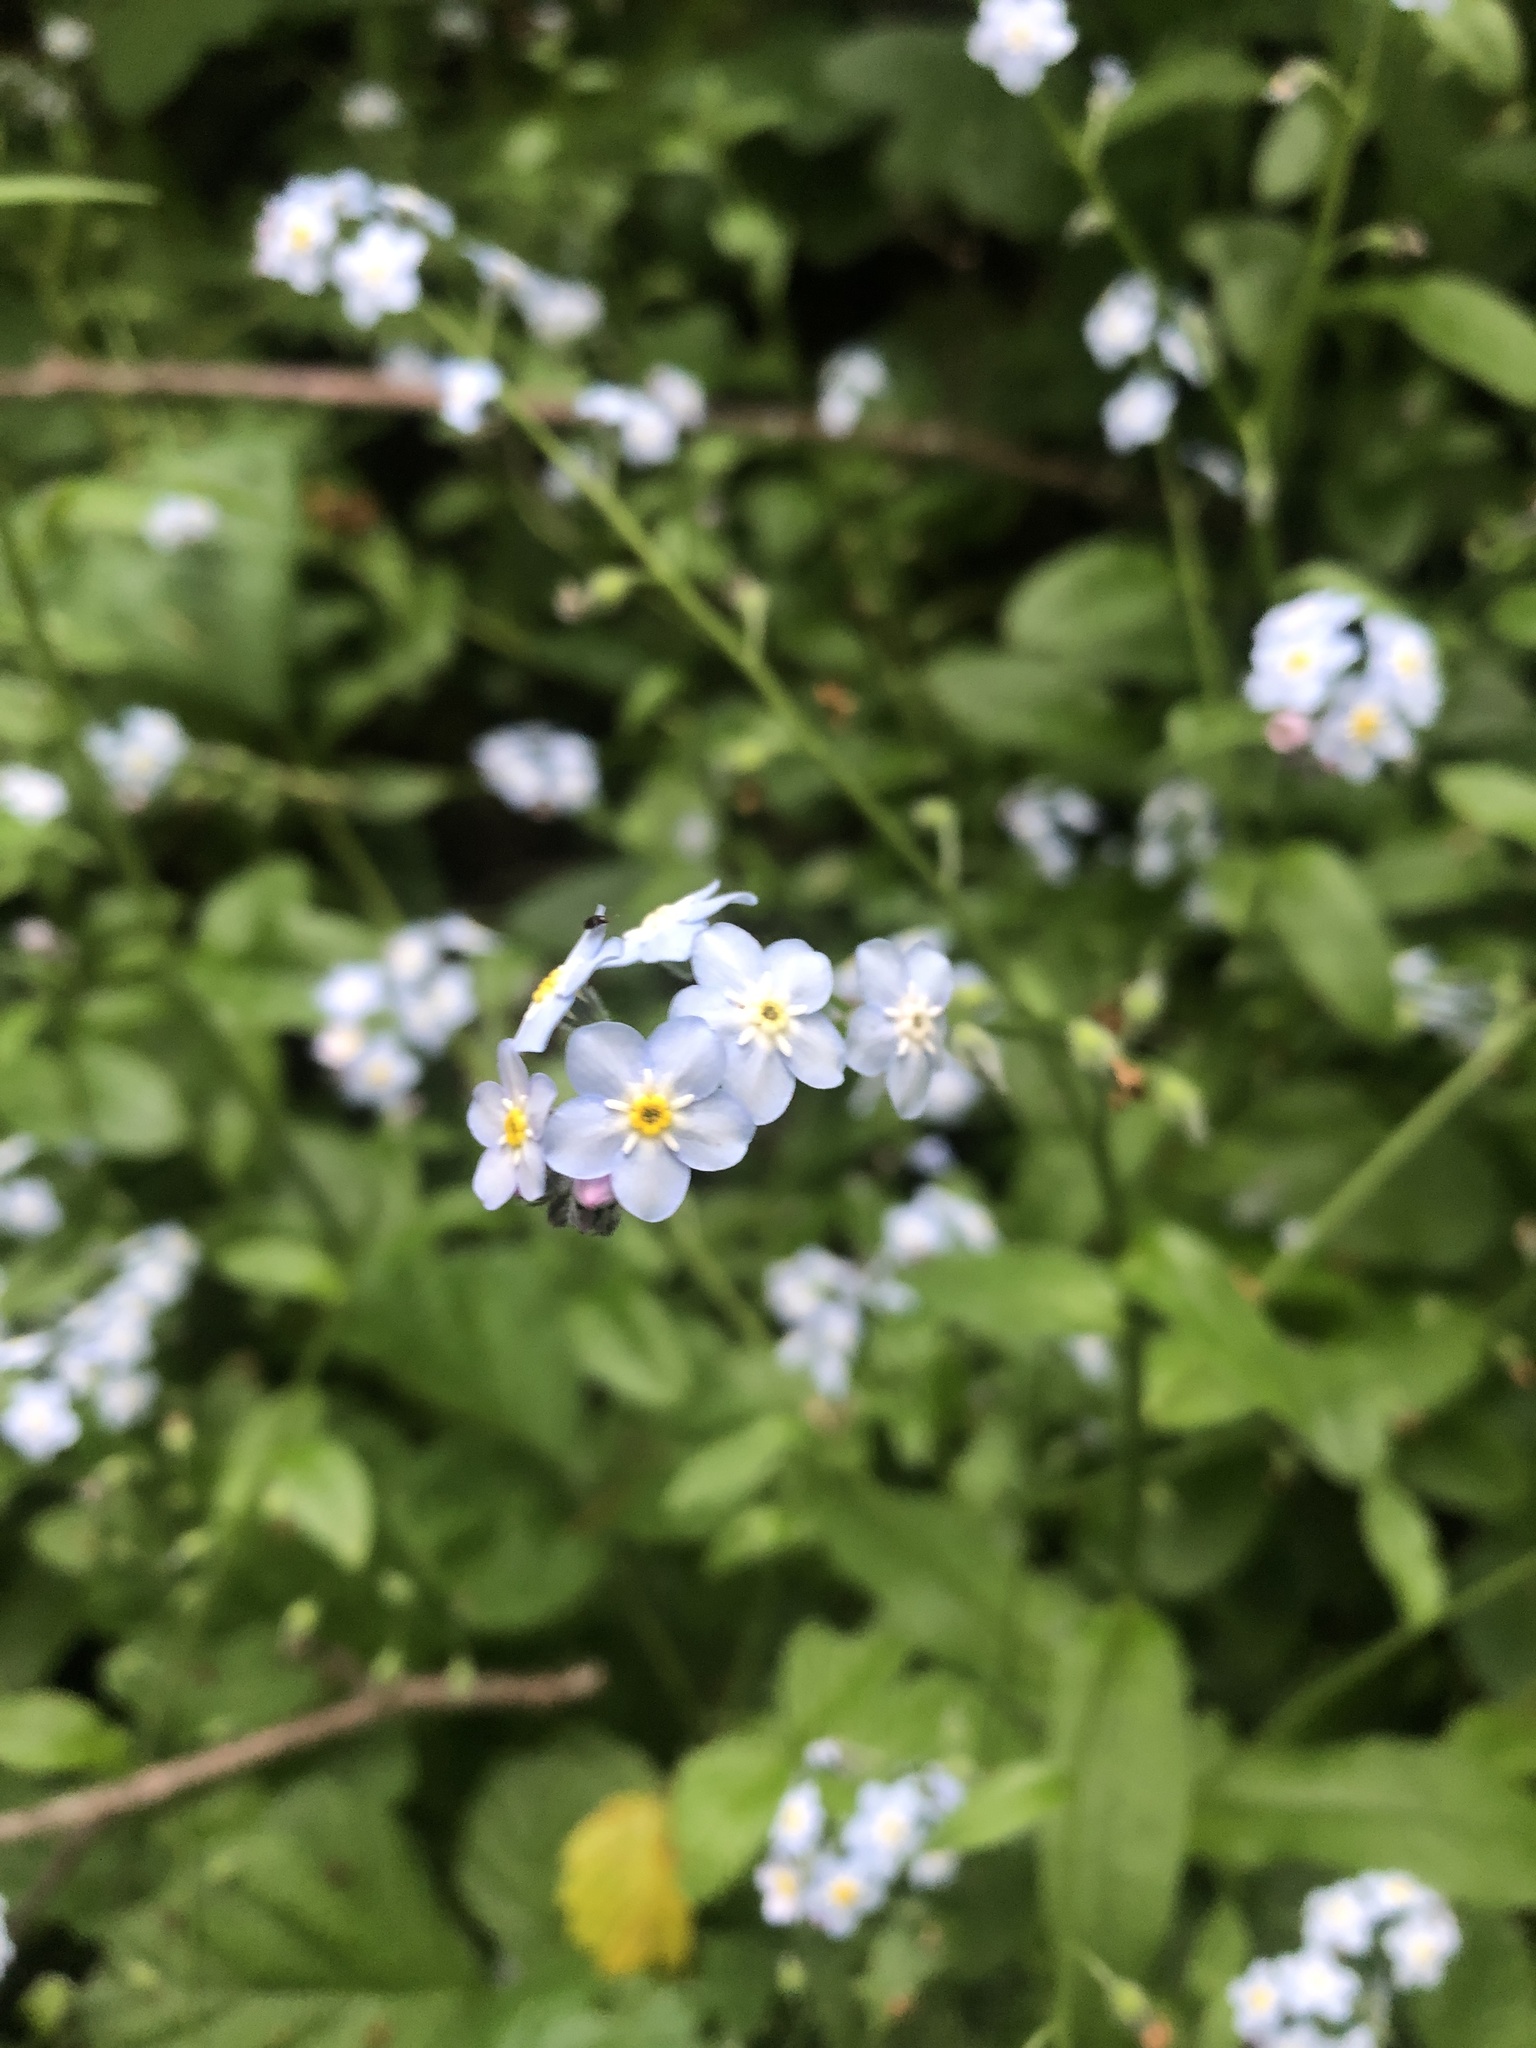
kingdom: Plantae
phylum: Tracheophyta
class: Magnoliopsida
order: Boraginales
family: Boraginaceae
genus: Myosotis
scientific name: Myosotis latifolia
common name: Broadleaf forget-me-not
